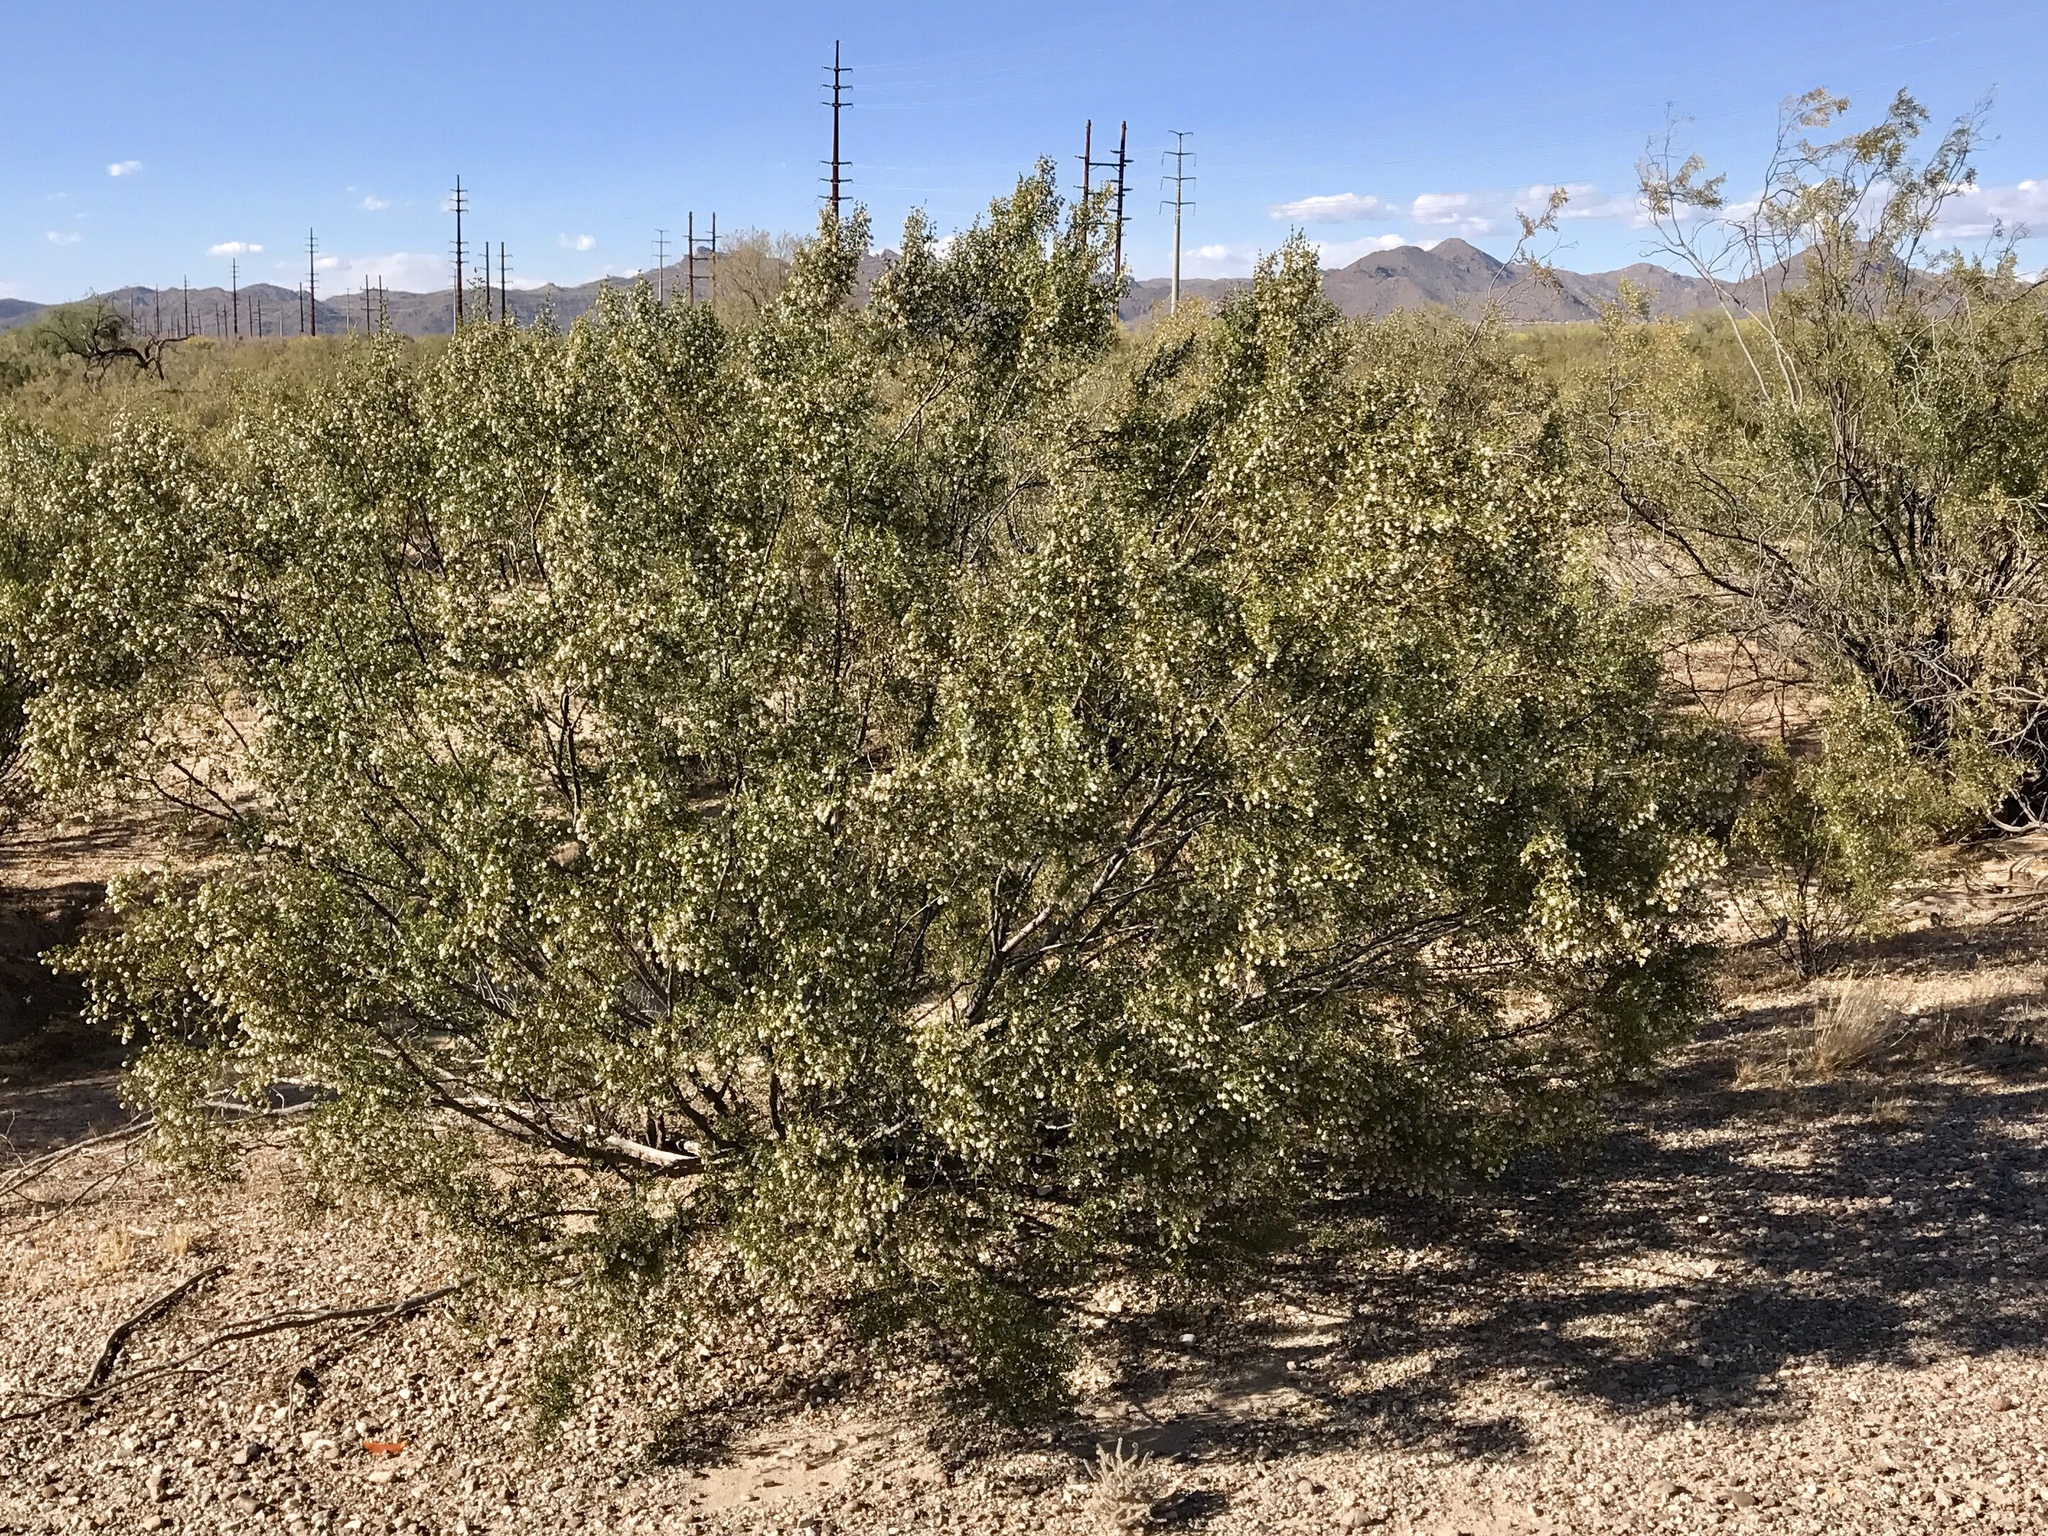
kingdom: Plantae
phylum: Tracheophyta
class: Magnoliopsida
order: Zygophyllales
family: Zygophyllaceae
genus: Larrea
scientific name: Larrea tridentata
